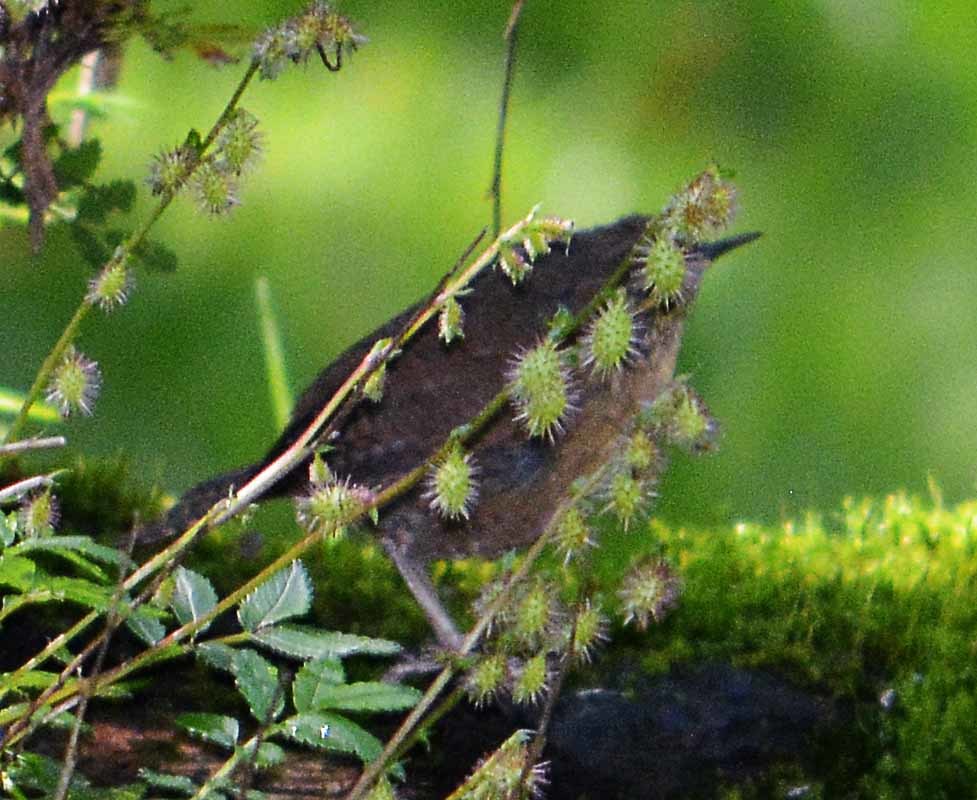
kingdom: Animalia
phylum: Chordata
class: Aves
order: Passeriformes
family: Troglodytidae
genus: Troglodytes
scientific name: Troglodytes aedon
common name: House wren
